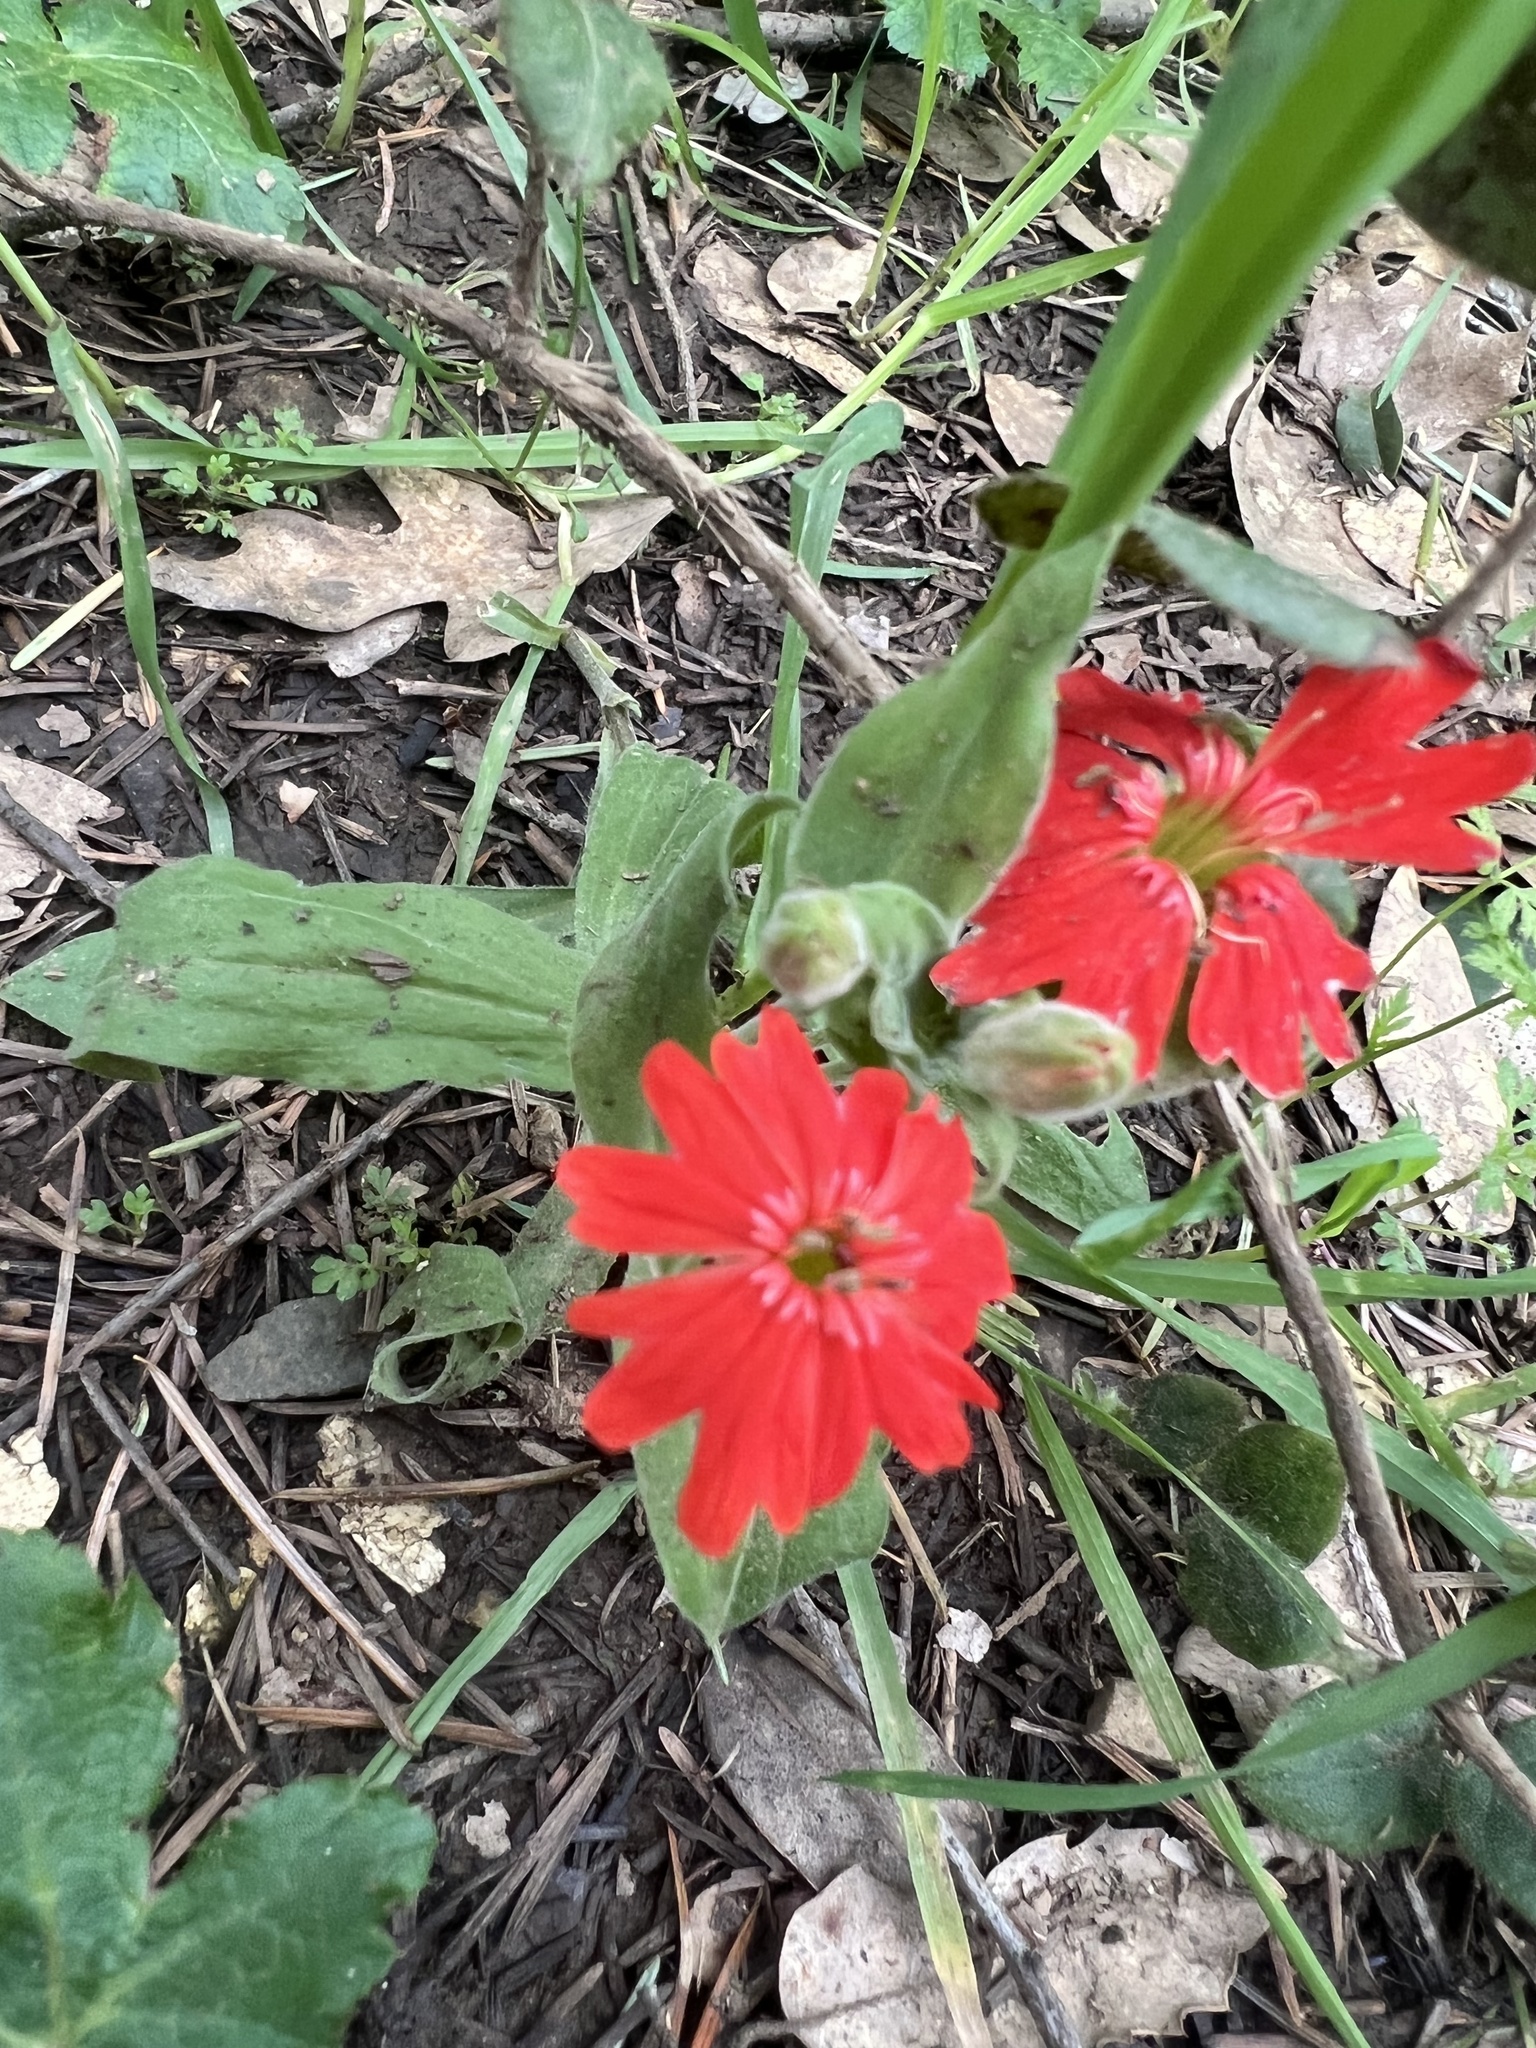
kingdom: Plantae
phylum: Tracheophyta
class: Magnoliopsida
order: Caryophyllales
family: Caryophyllaceae
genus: Silene
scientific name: Silene laciniata
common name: Indian-pink
